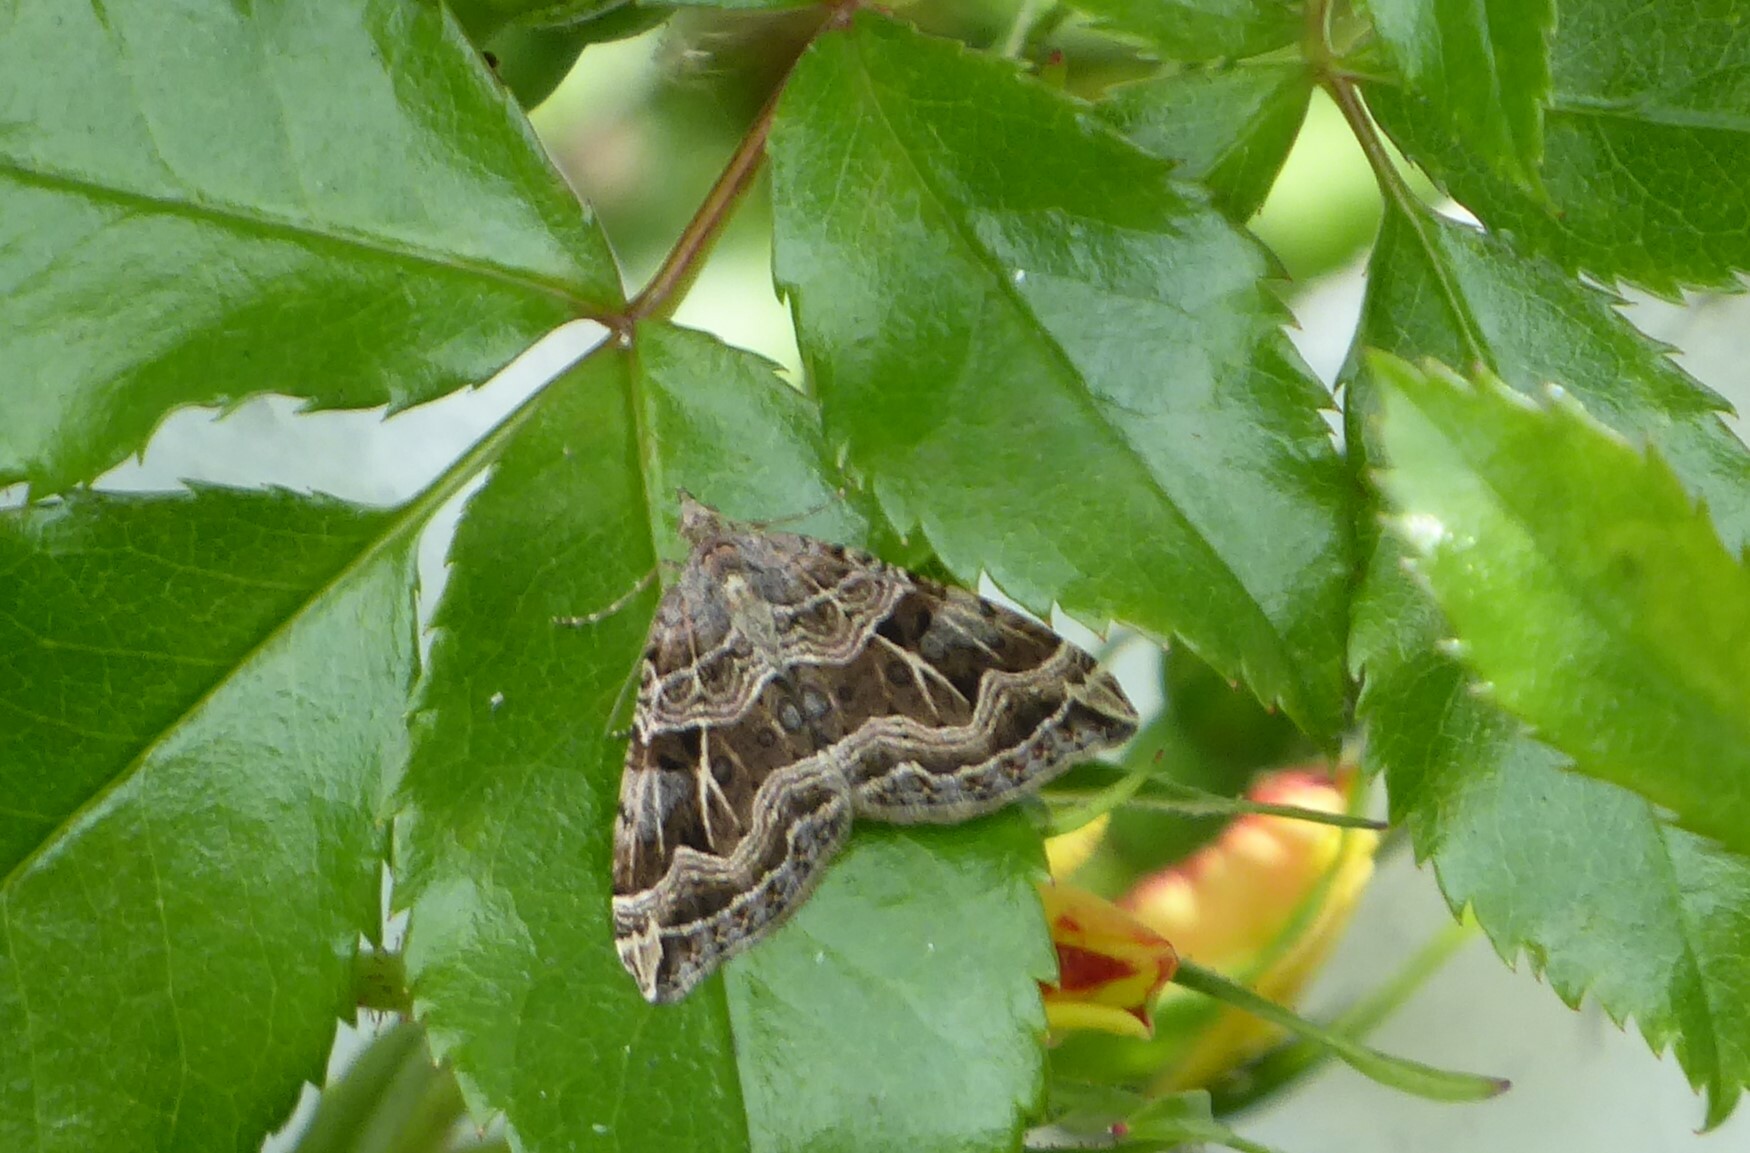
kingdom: Animalia
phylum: Arthropoda
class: Insecta
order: Lepidoptera
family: Geometridae
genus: Xanthorhoe
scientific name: Xanthorhoe semifissata
